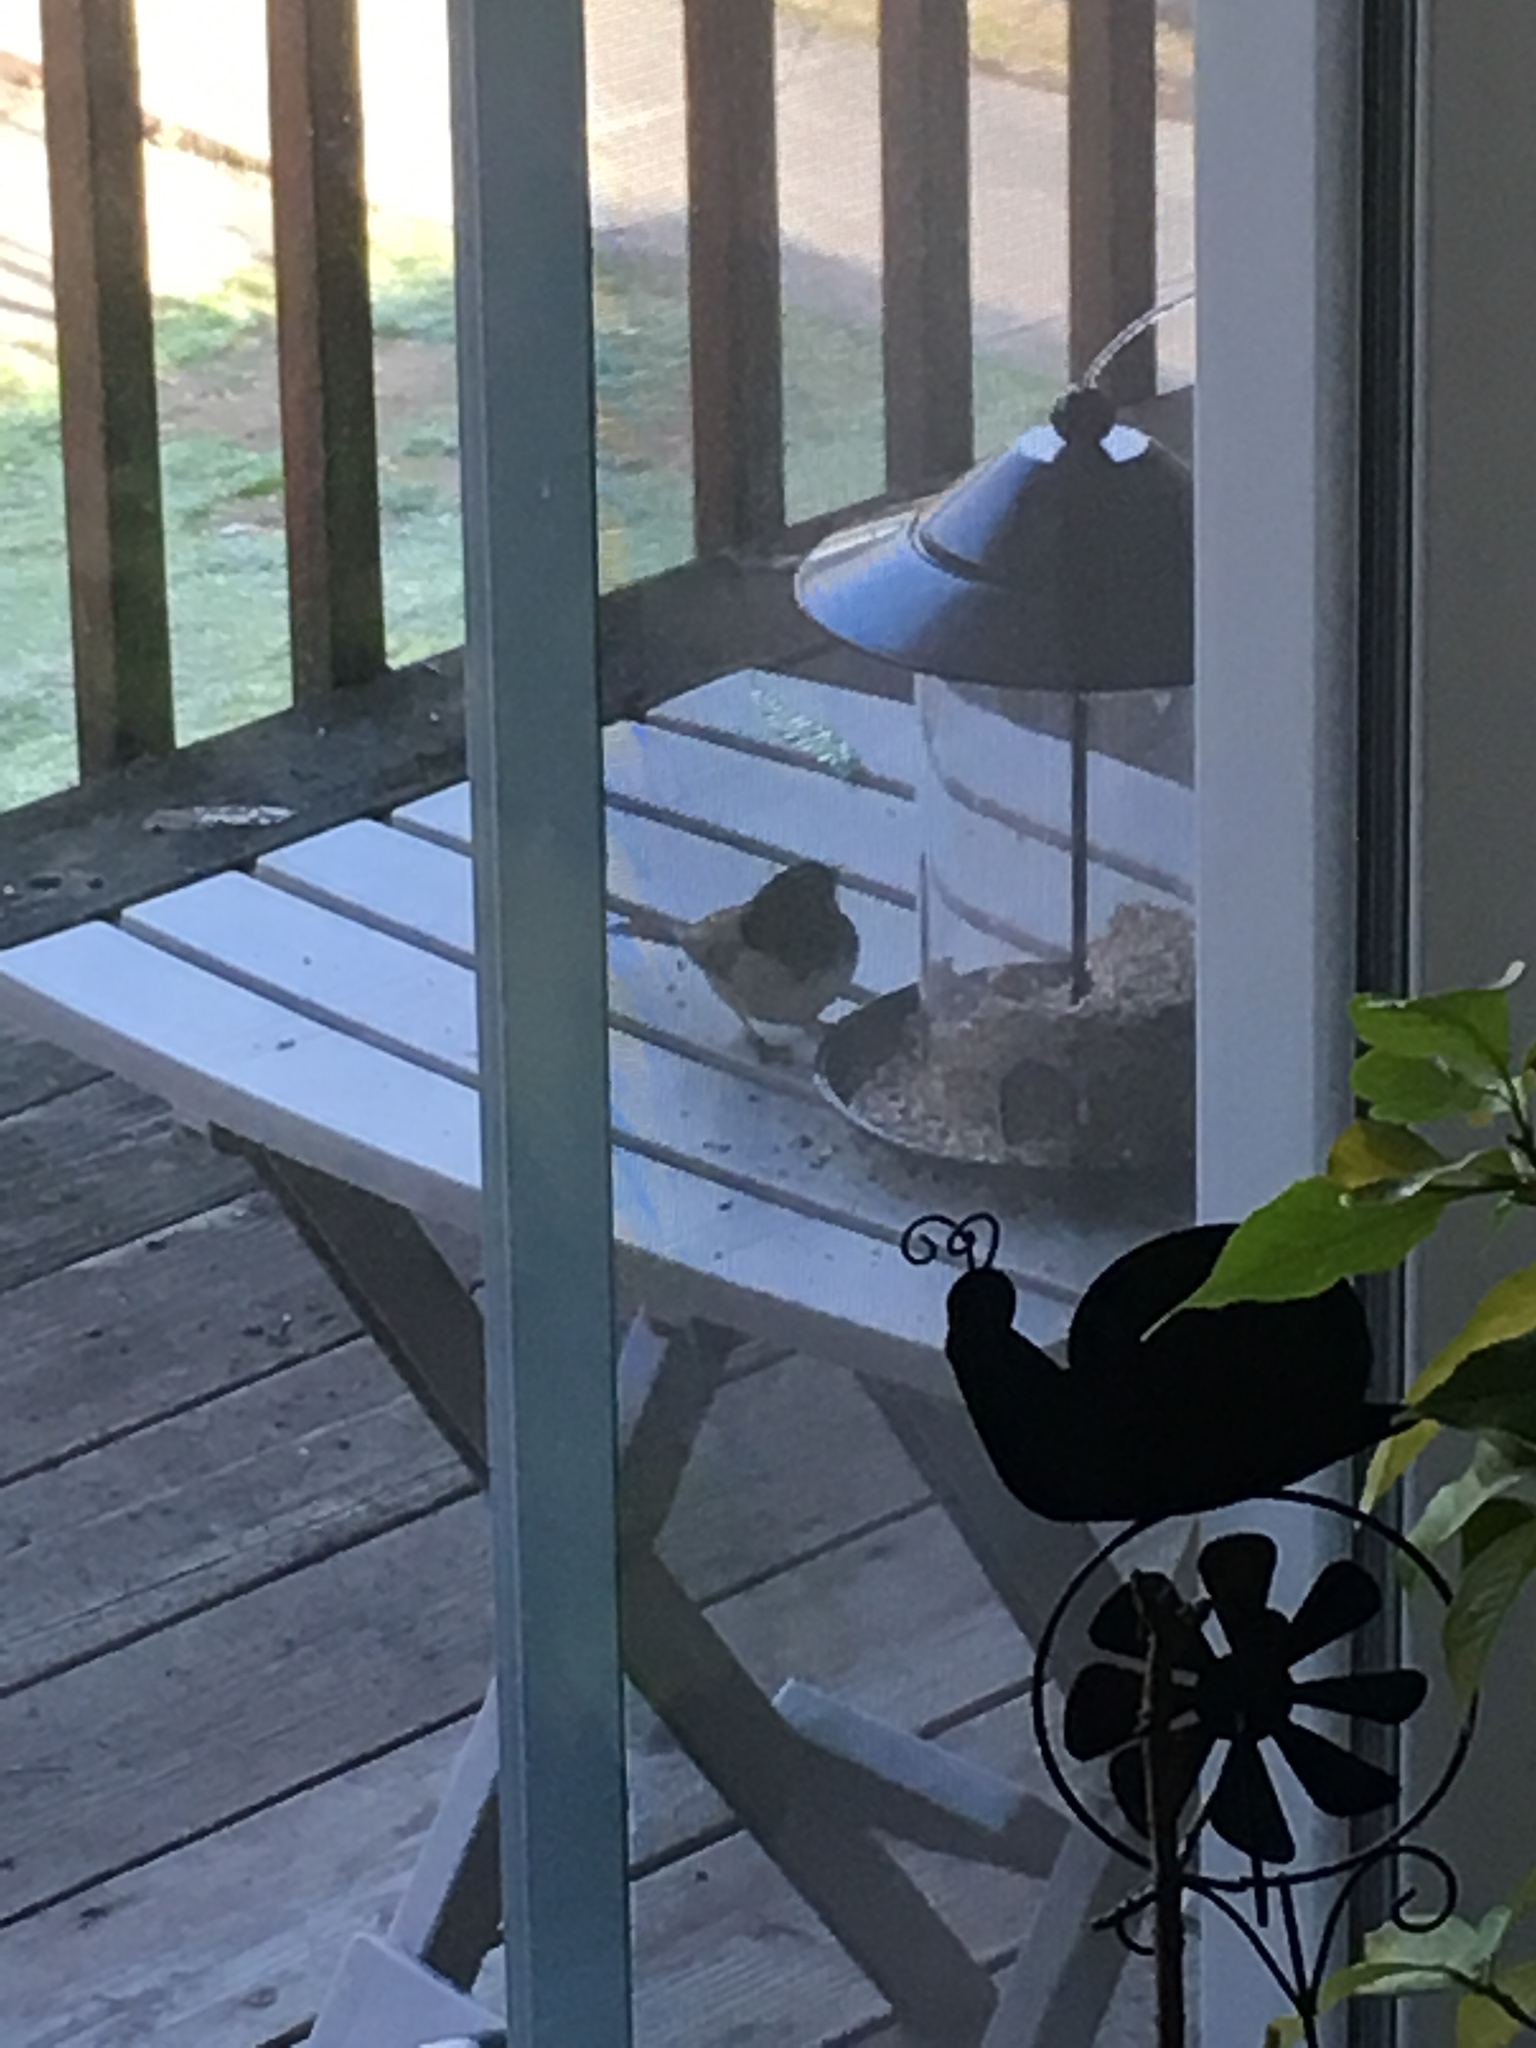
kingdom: Animalia
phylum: Chordata
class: Aves
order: Passeriformes
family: Passerellidae
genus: Junco
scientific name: Junco hyemalis
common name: Dark-eyed junco
